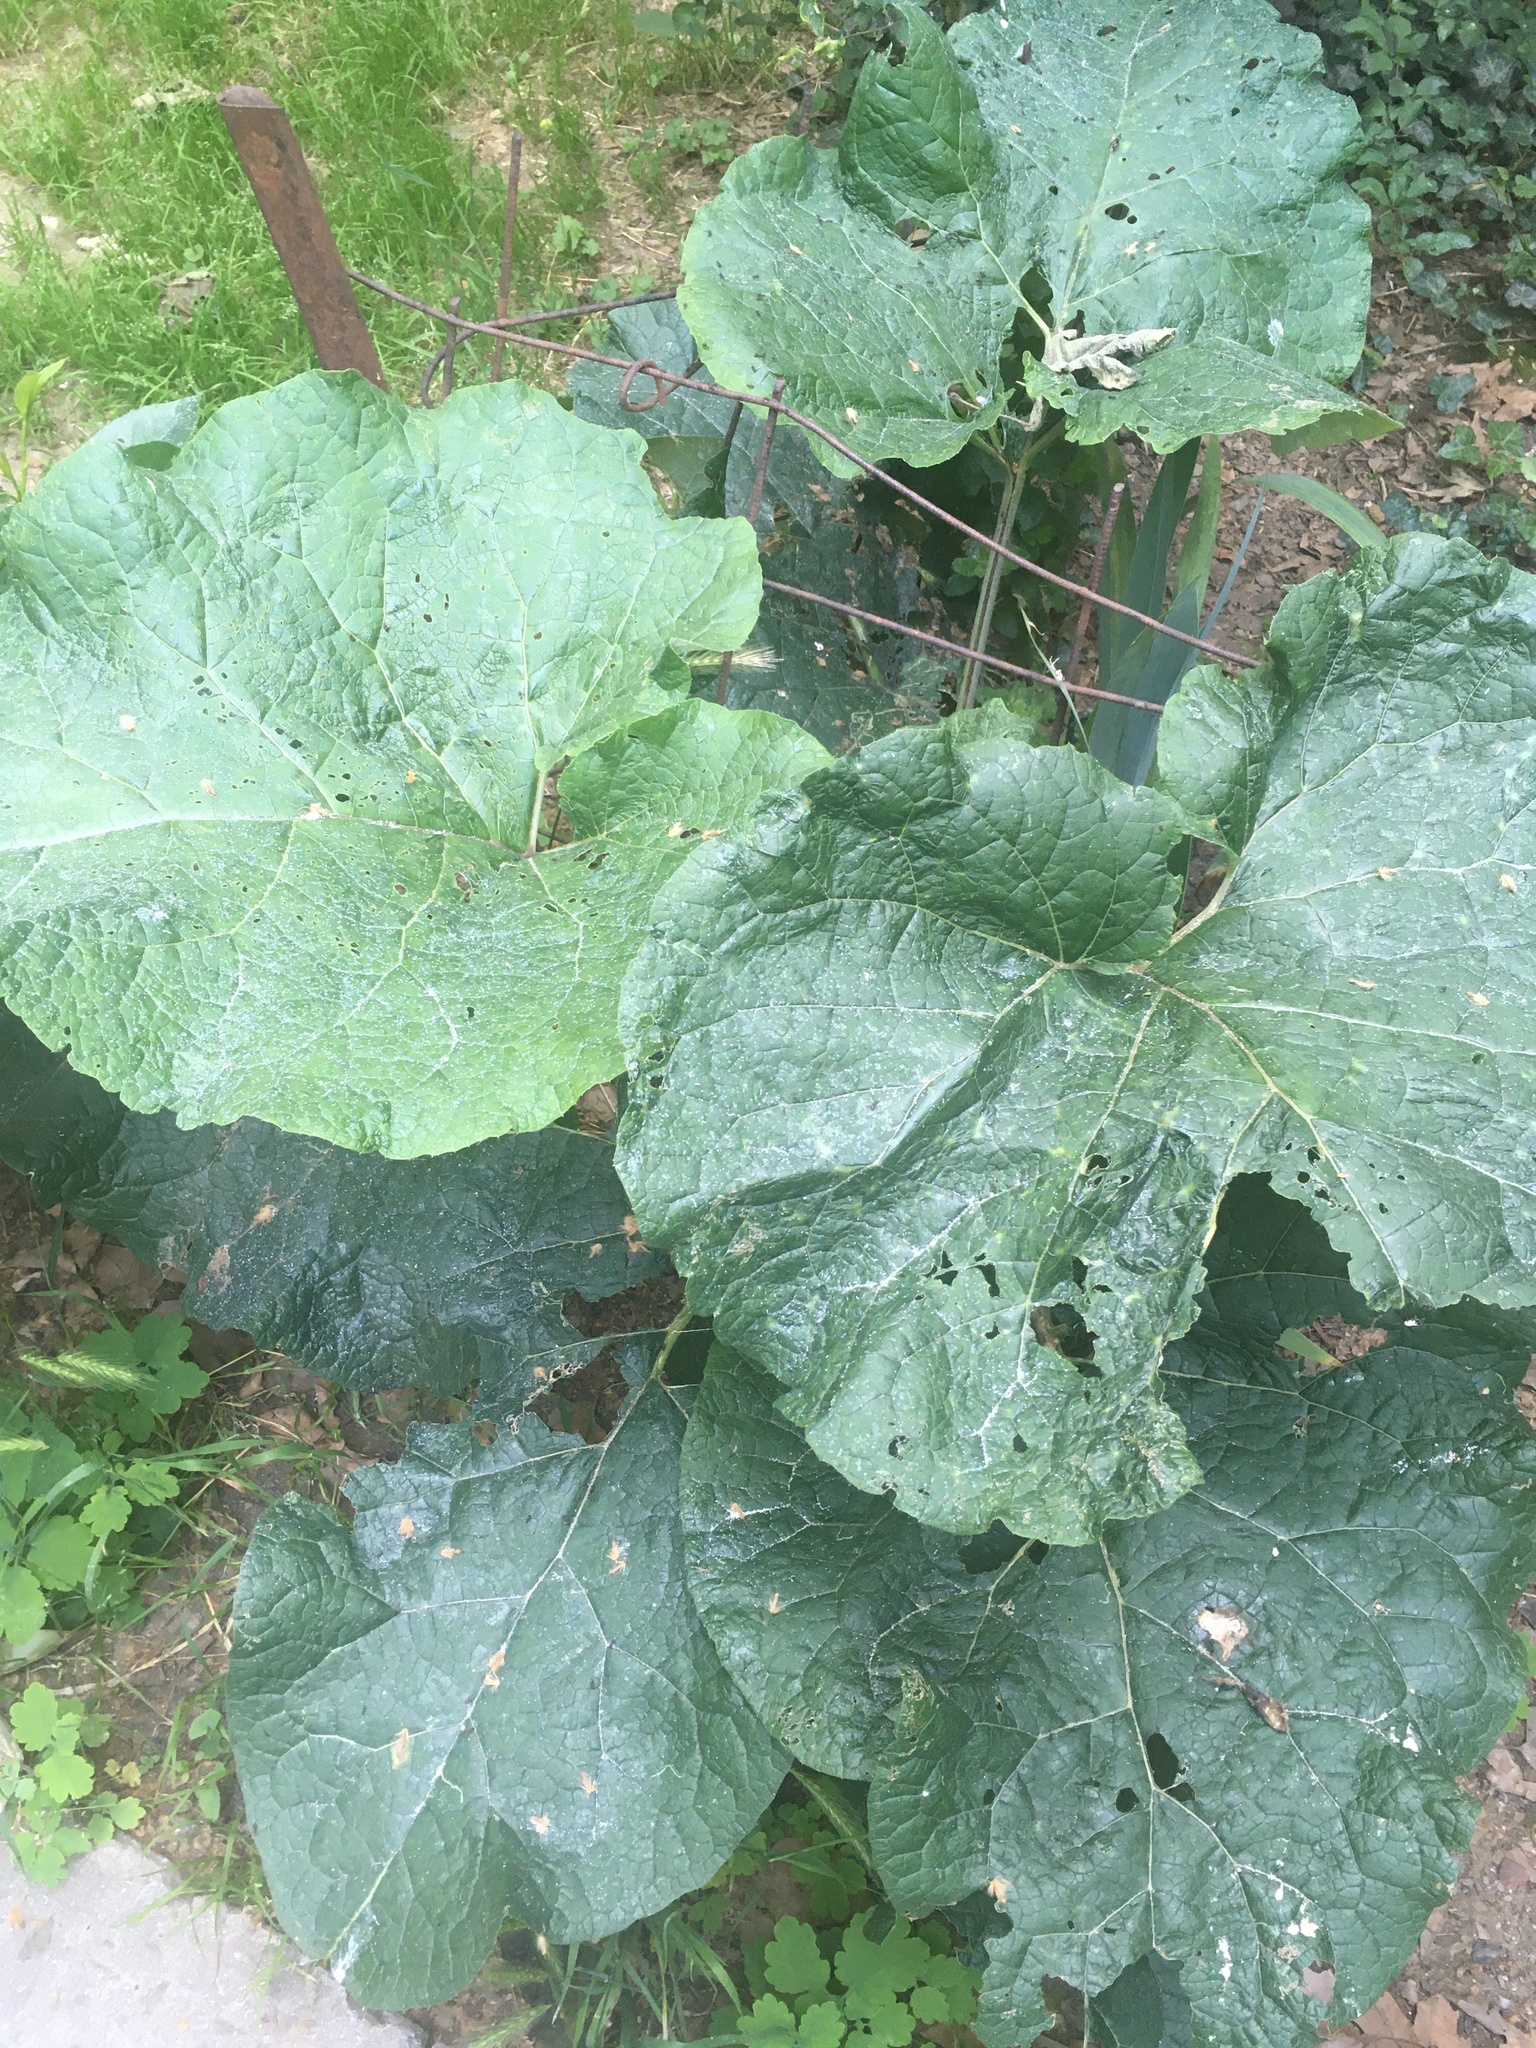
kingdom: Plantae
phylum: Tracheophyta
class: Magnoliopsida
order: Asterales
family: Asteraceae
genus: Arctium
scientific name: Arctium
